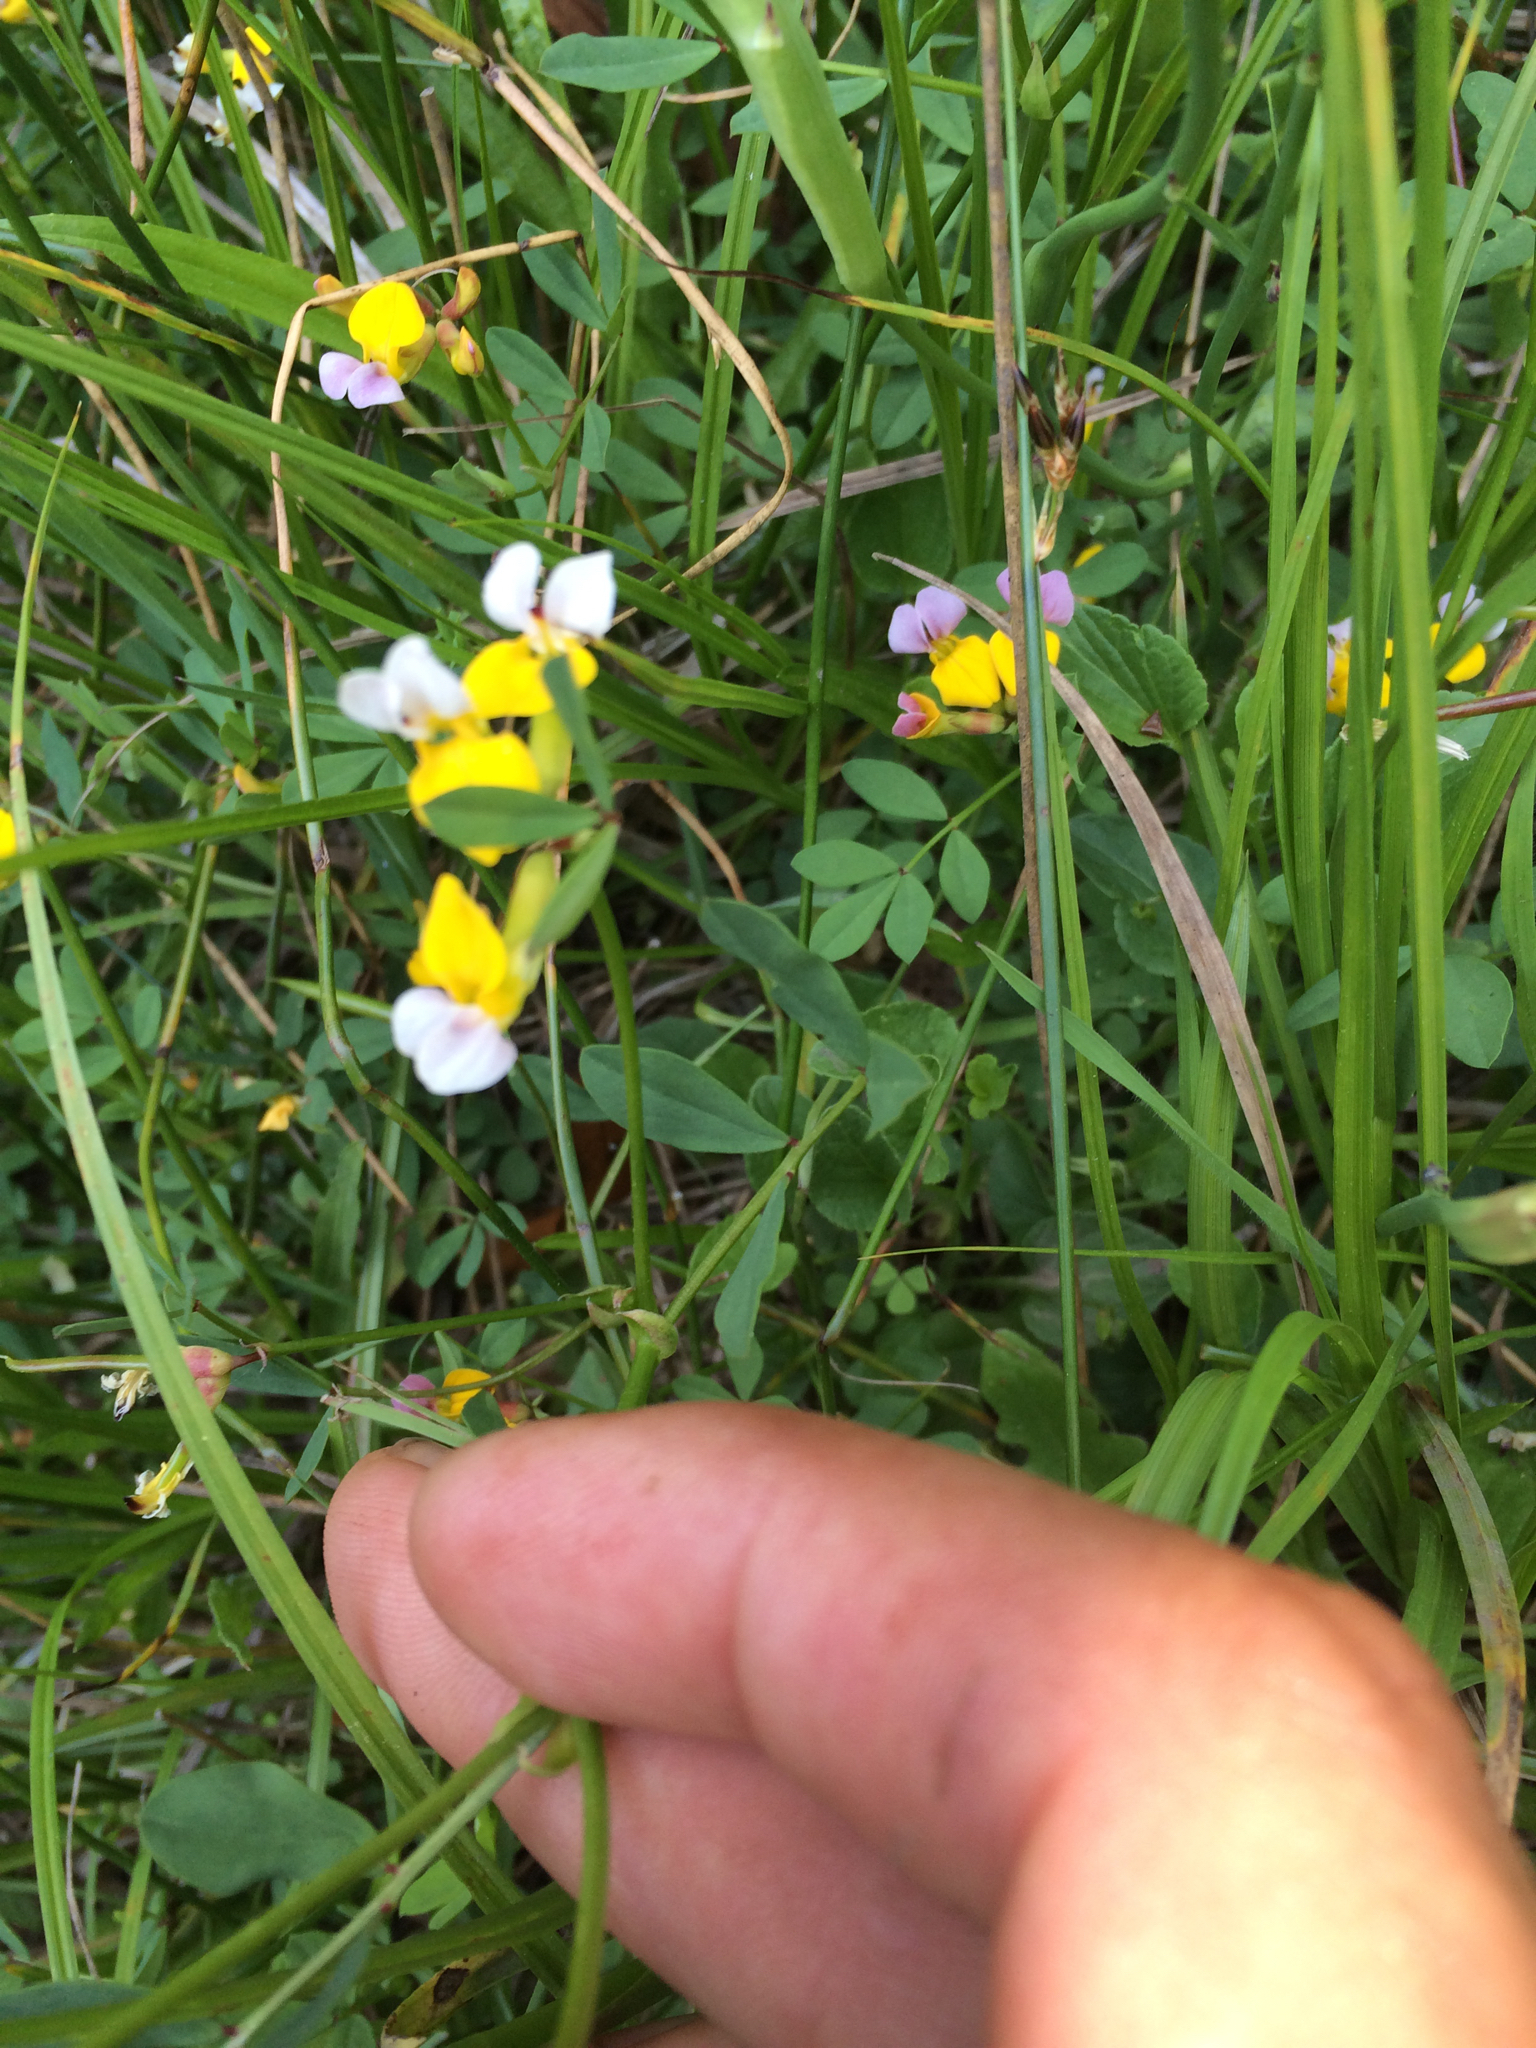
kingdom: Plantae
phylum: Tracheophyta
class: Magnoliopsida
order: Fabales
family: Fabaceae
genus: Hosackia
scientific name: Hosackia gracilis
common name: Seaside bird's-foot lotus
